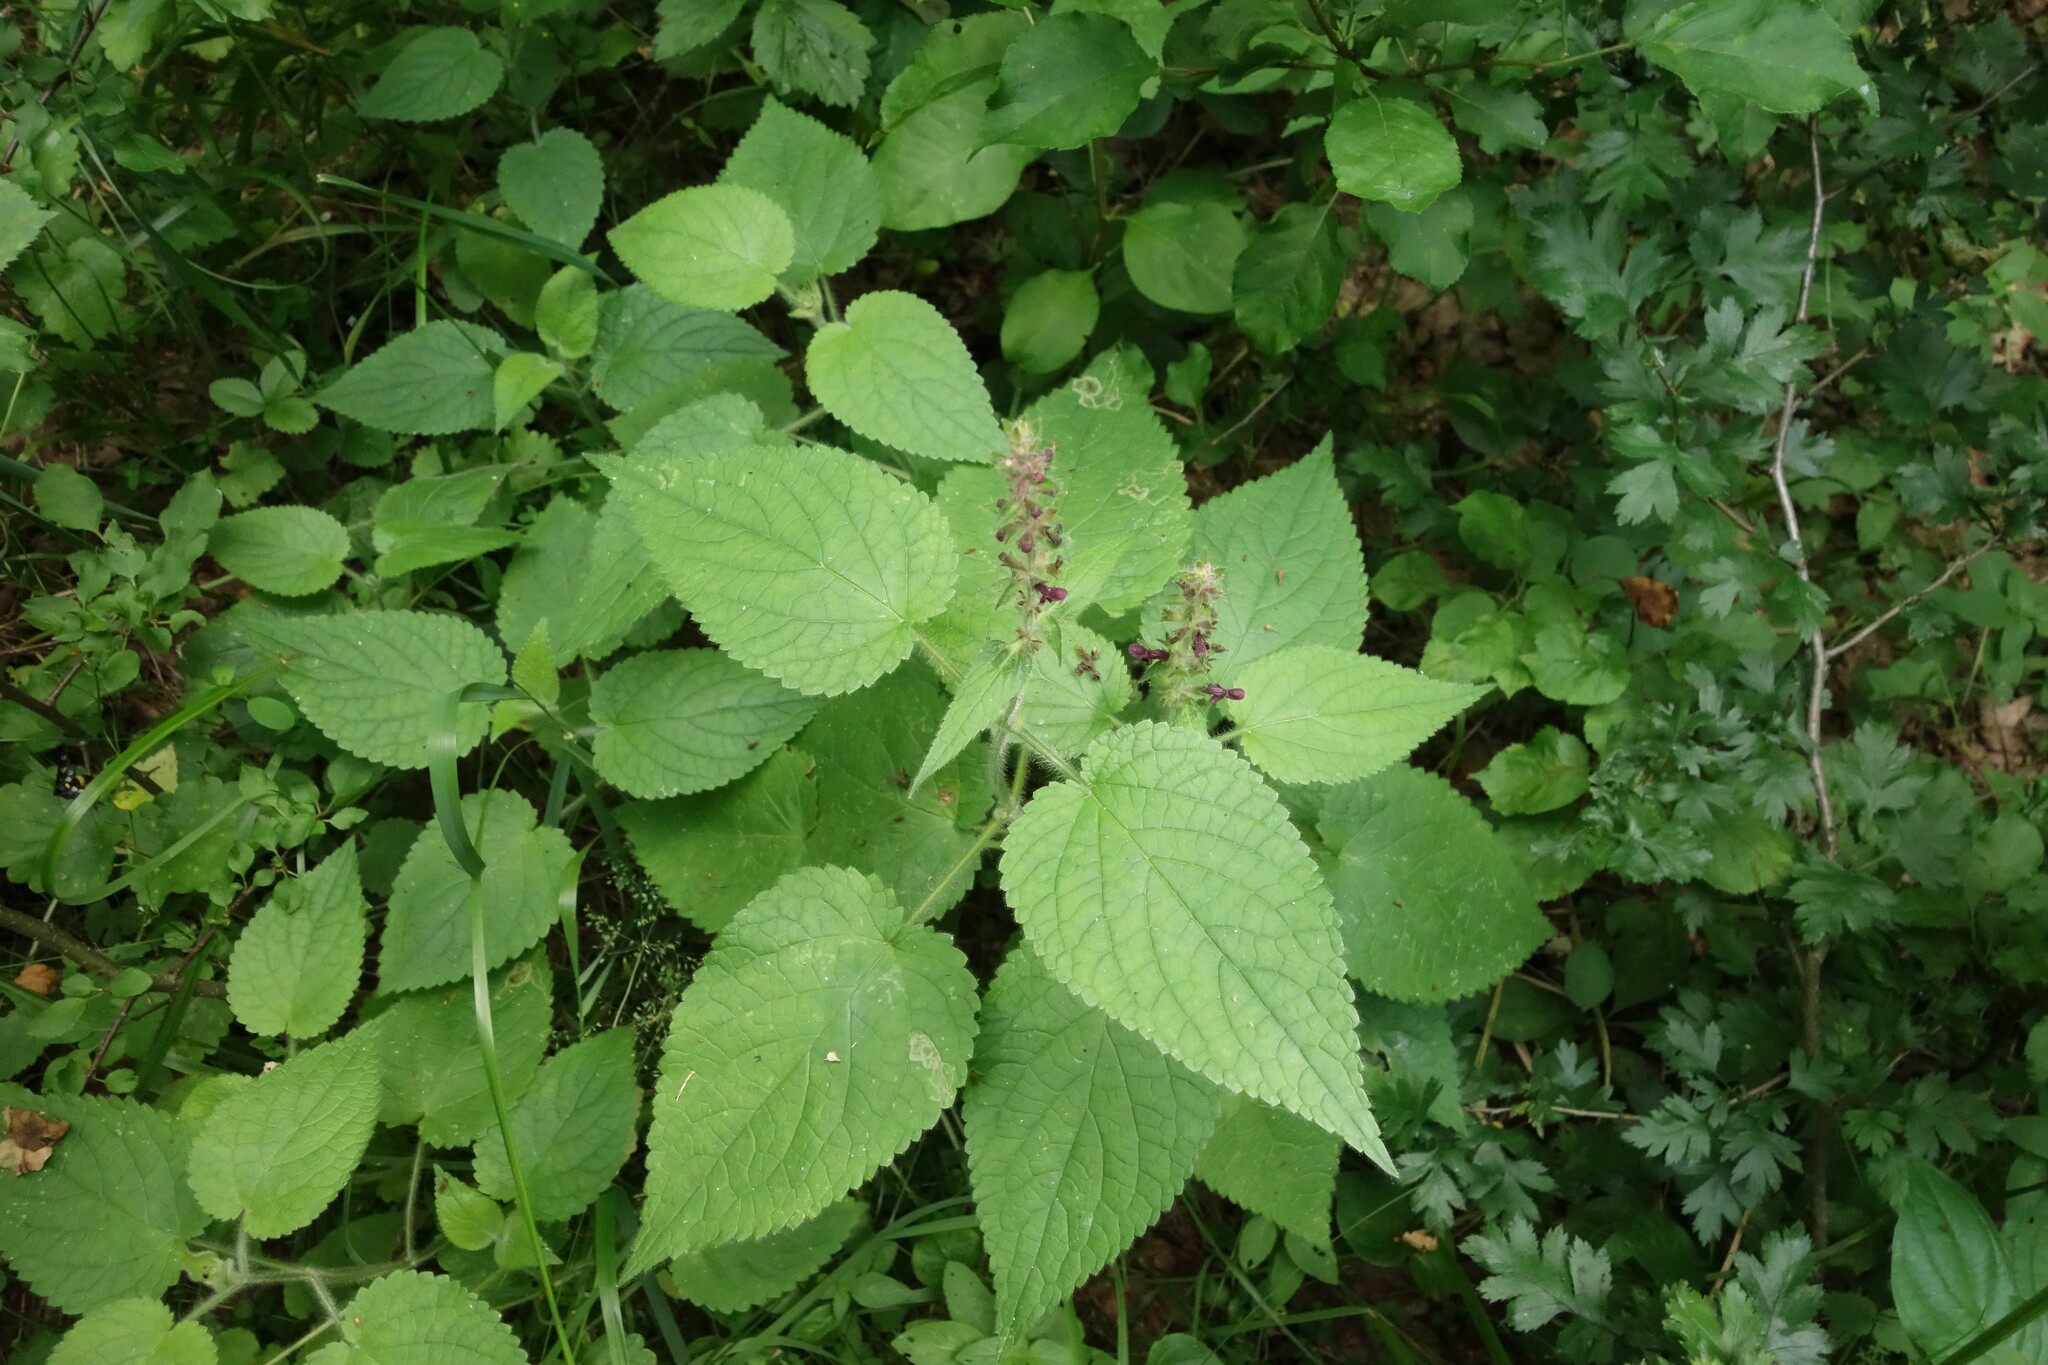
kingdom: Plantae
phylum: Tracheophyta
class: Magnoliopsida
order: Lamiales
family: Lamiaceae
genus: Stachys
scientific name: Stachys sylvatica
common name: Hedge woundwort
